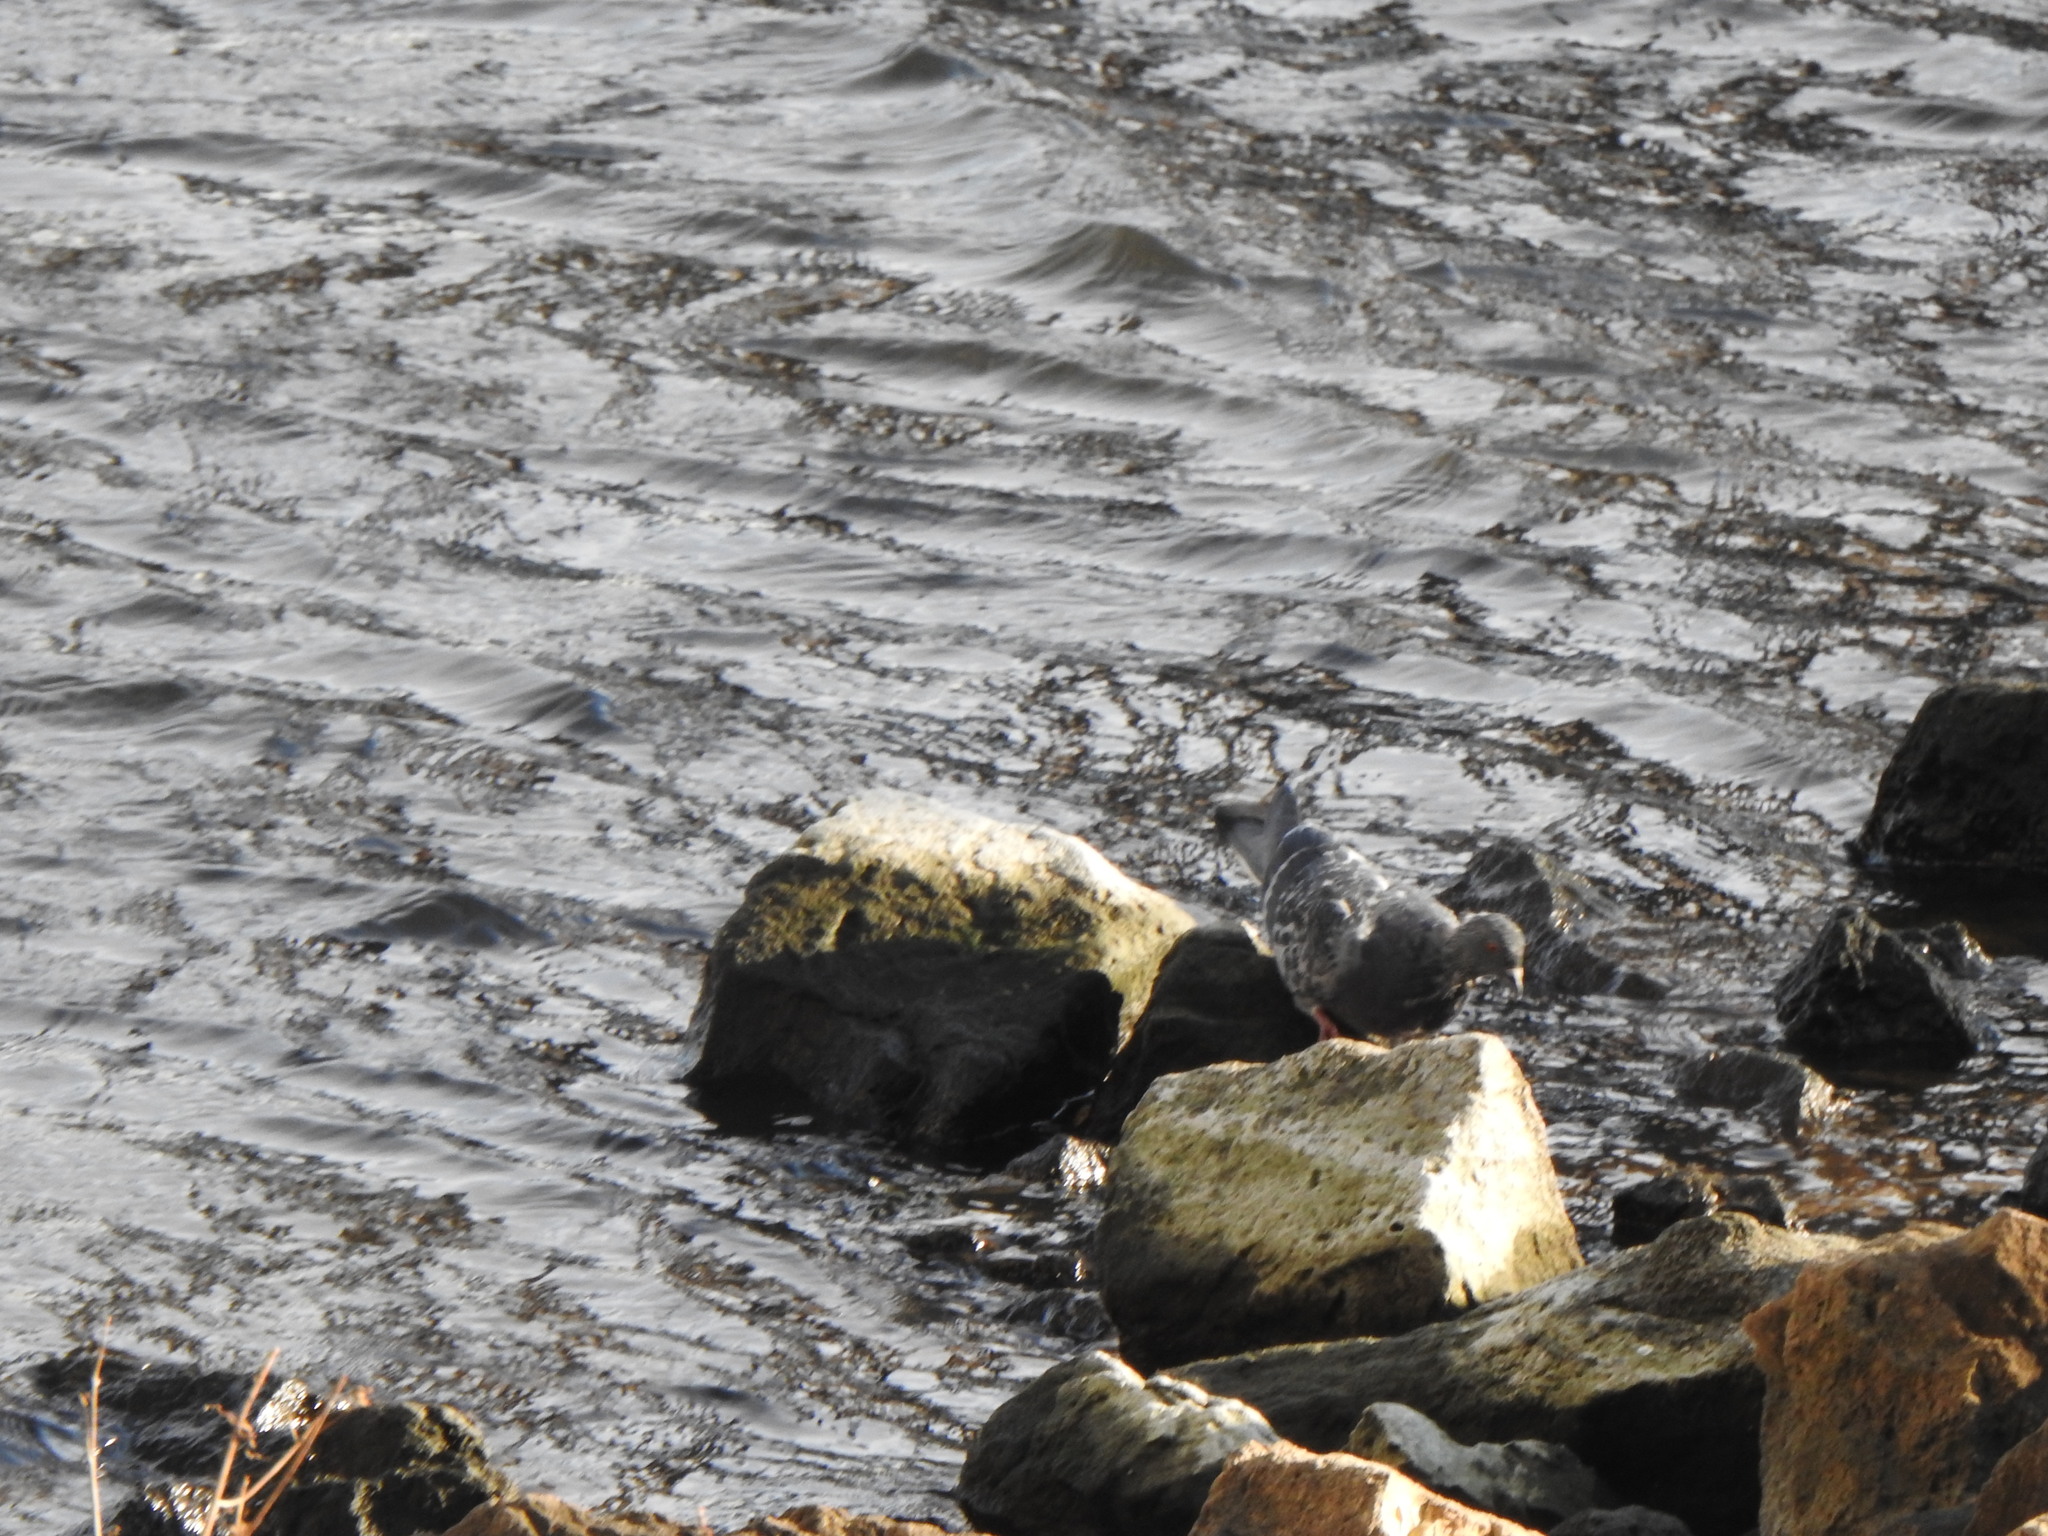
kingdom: Animalia
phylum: Chordata
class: Aves
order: Columbiformes
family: Columbidae
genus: Columba
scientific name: Columba livia
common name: Rock pigeon
